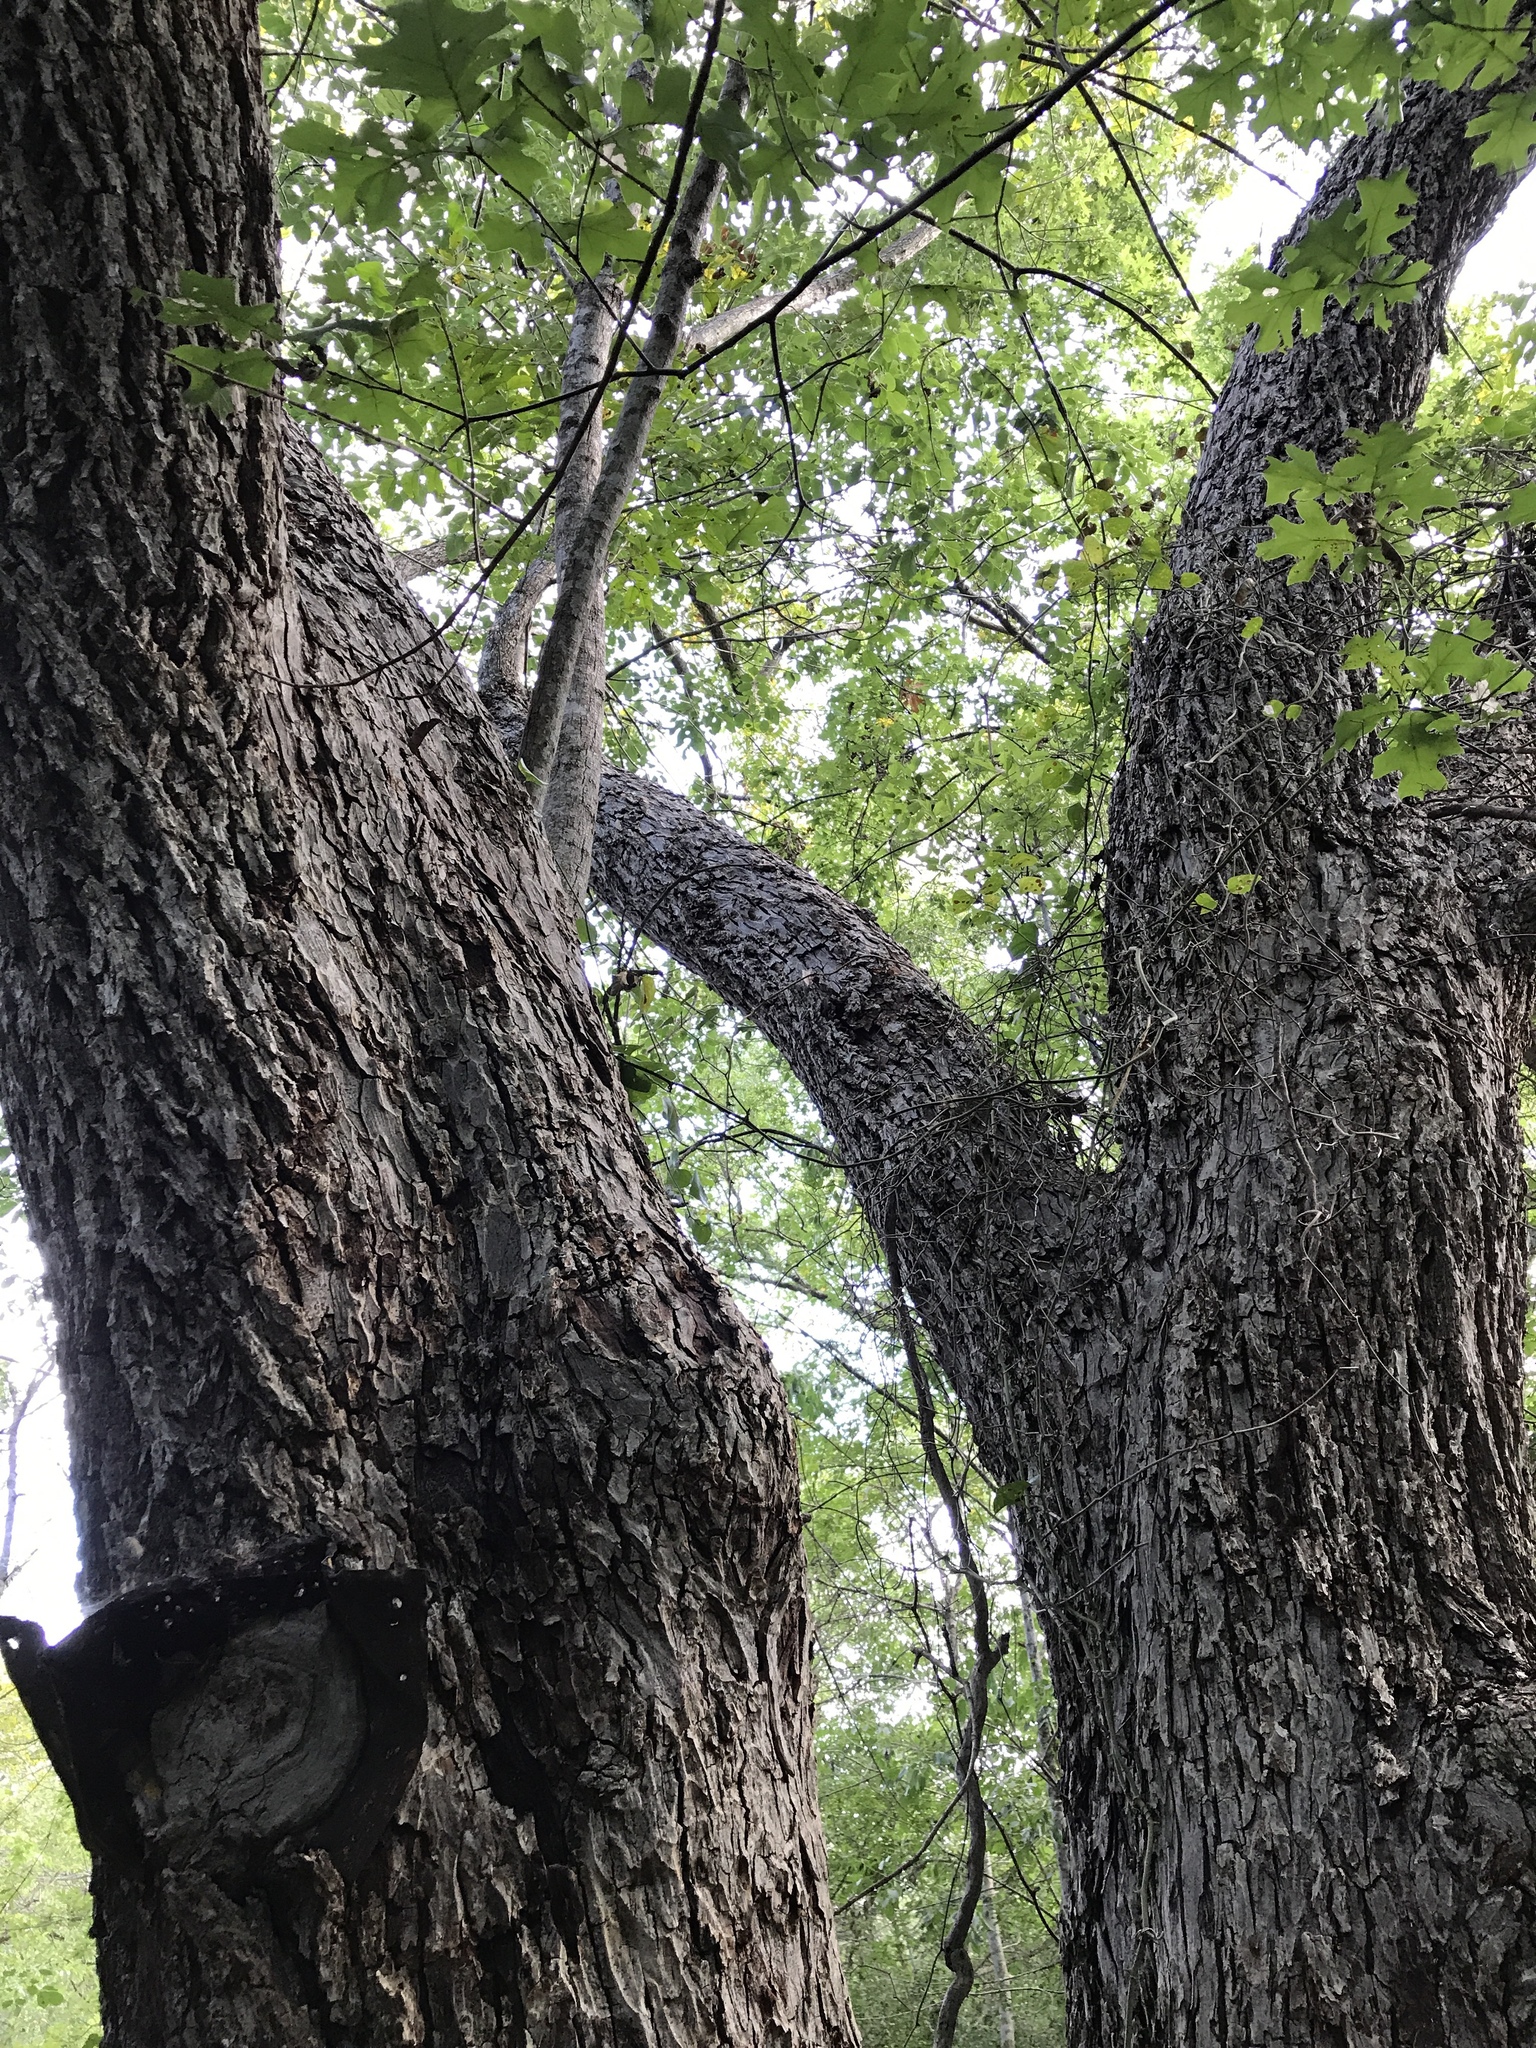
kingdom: Plantae
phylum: Tracheophyta
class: Magnoliopsida
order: Fagales
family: Juglandaceae
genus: Carya
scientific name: Carya illinoinensis
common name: Pecan
